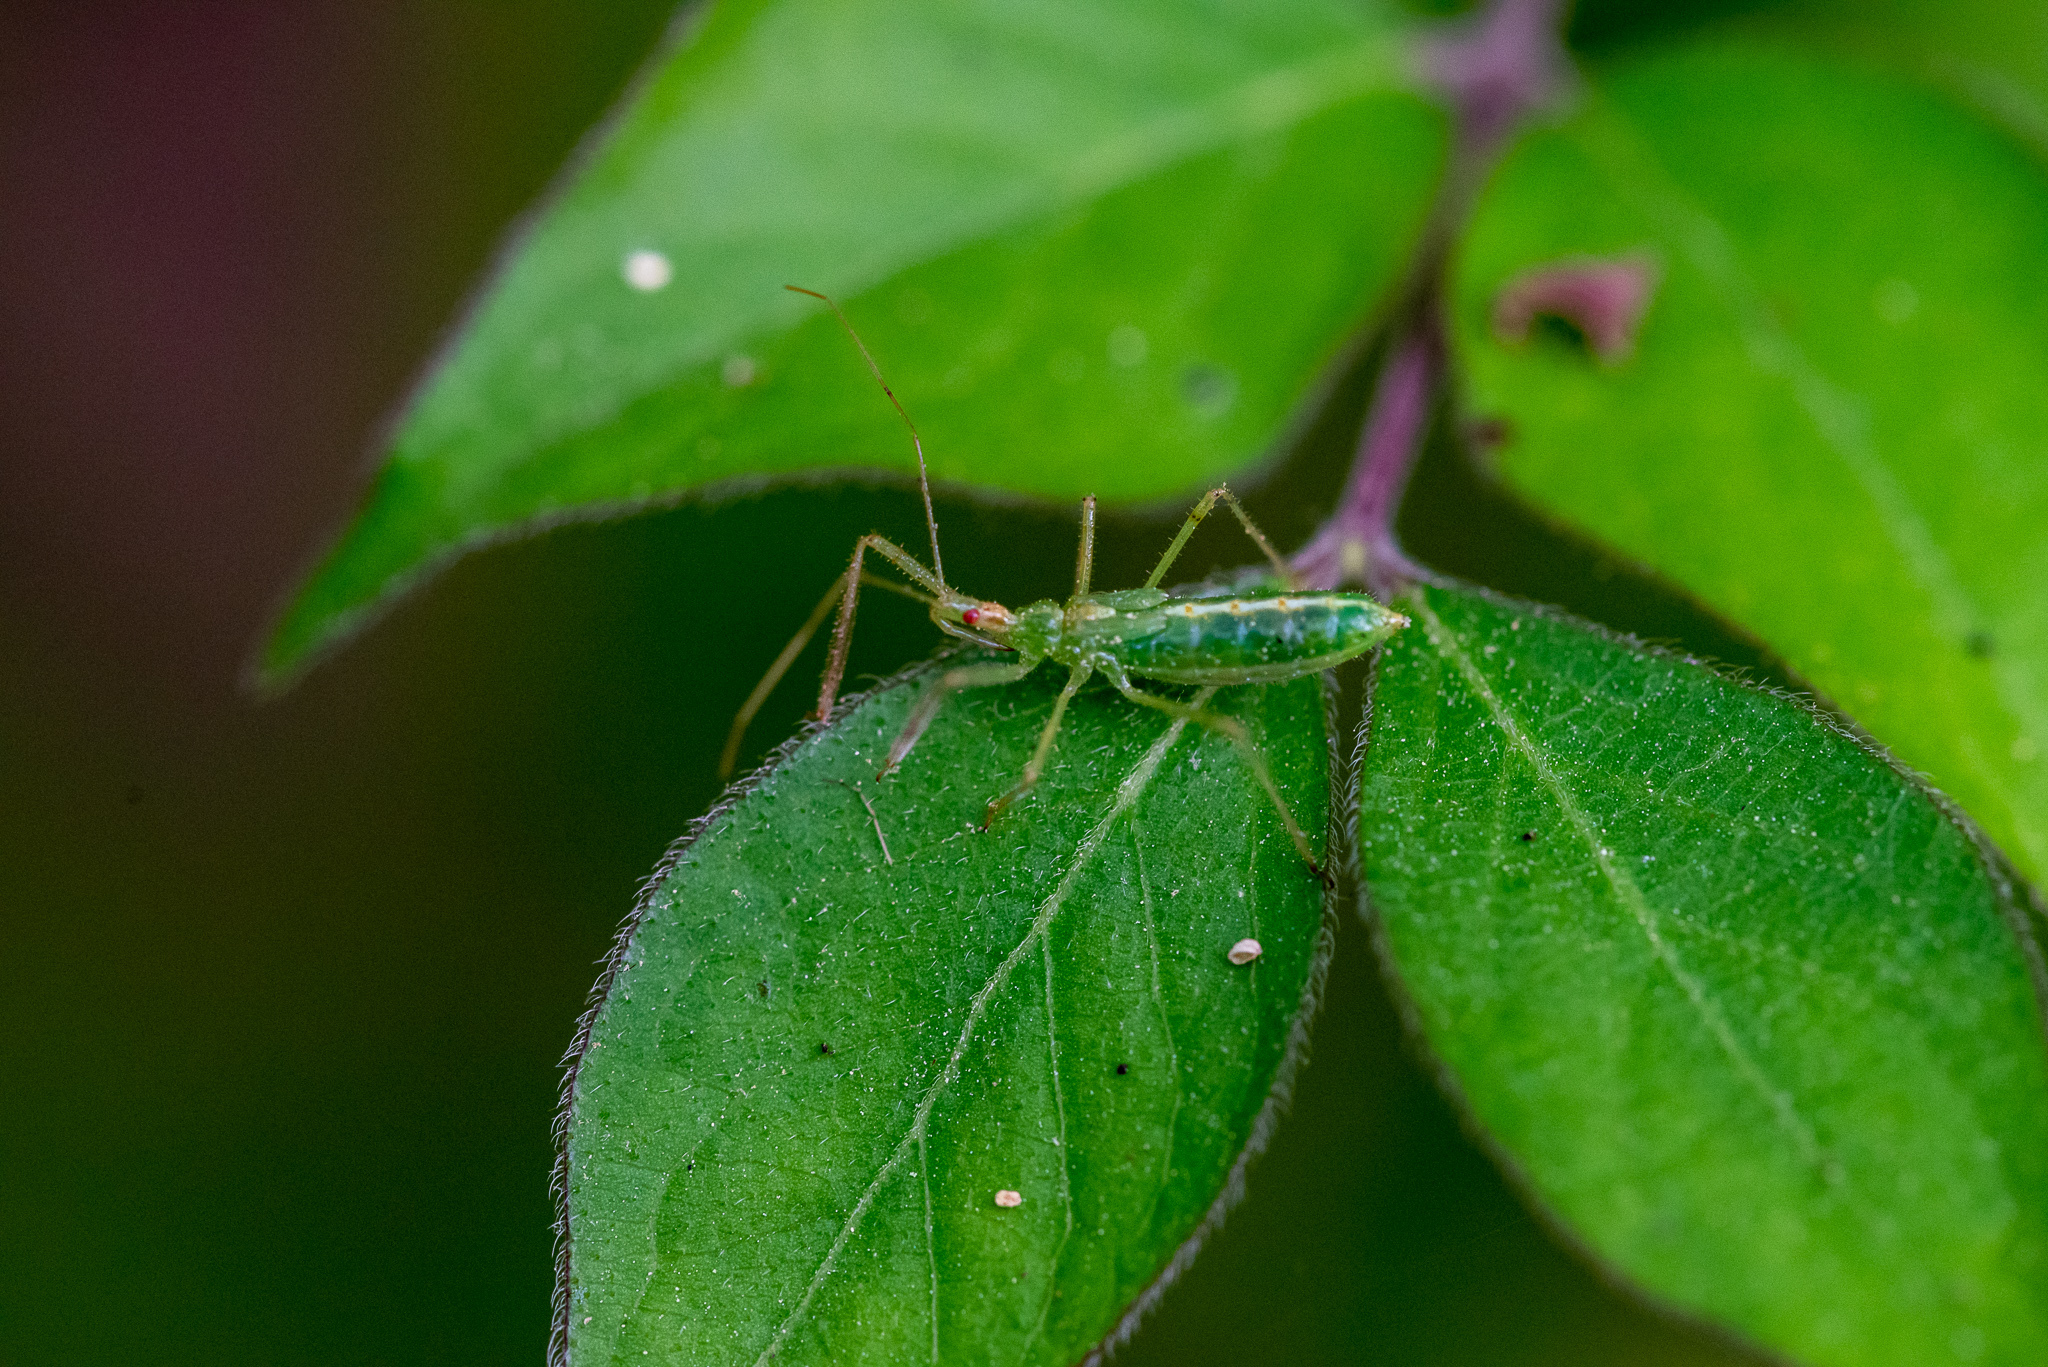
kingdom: Animalia
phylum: Arthropoda
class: Insecta
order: Hemiptera
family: Reduviidae
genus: Zelus
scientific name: Zelus luridus
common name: Pale green assassin bug
